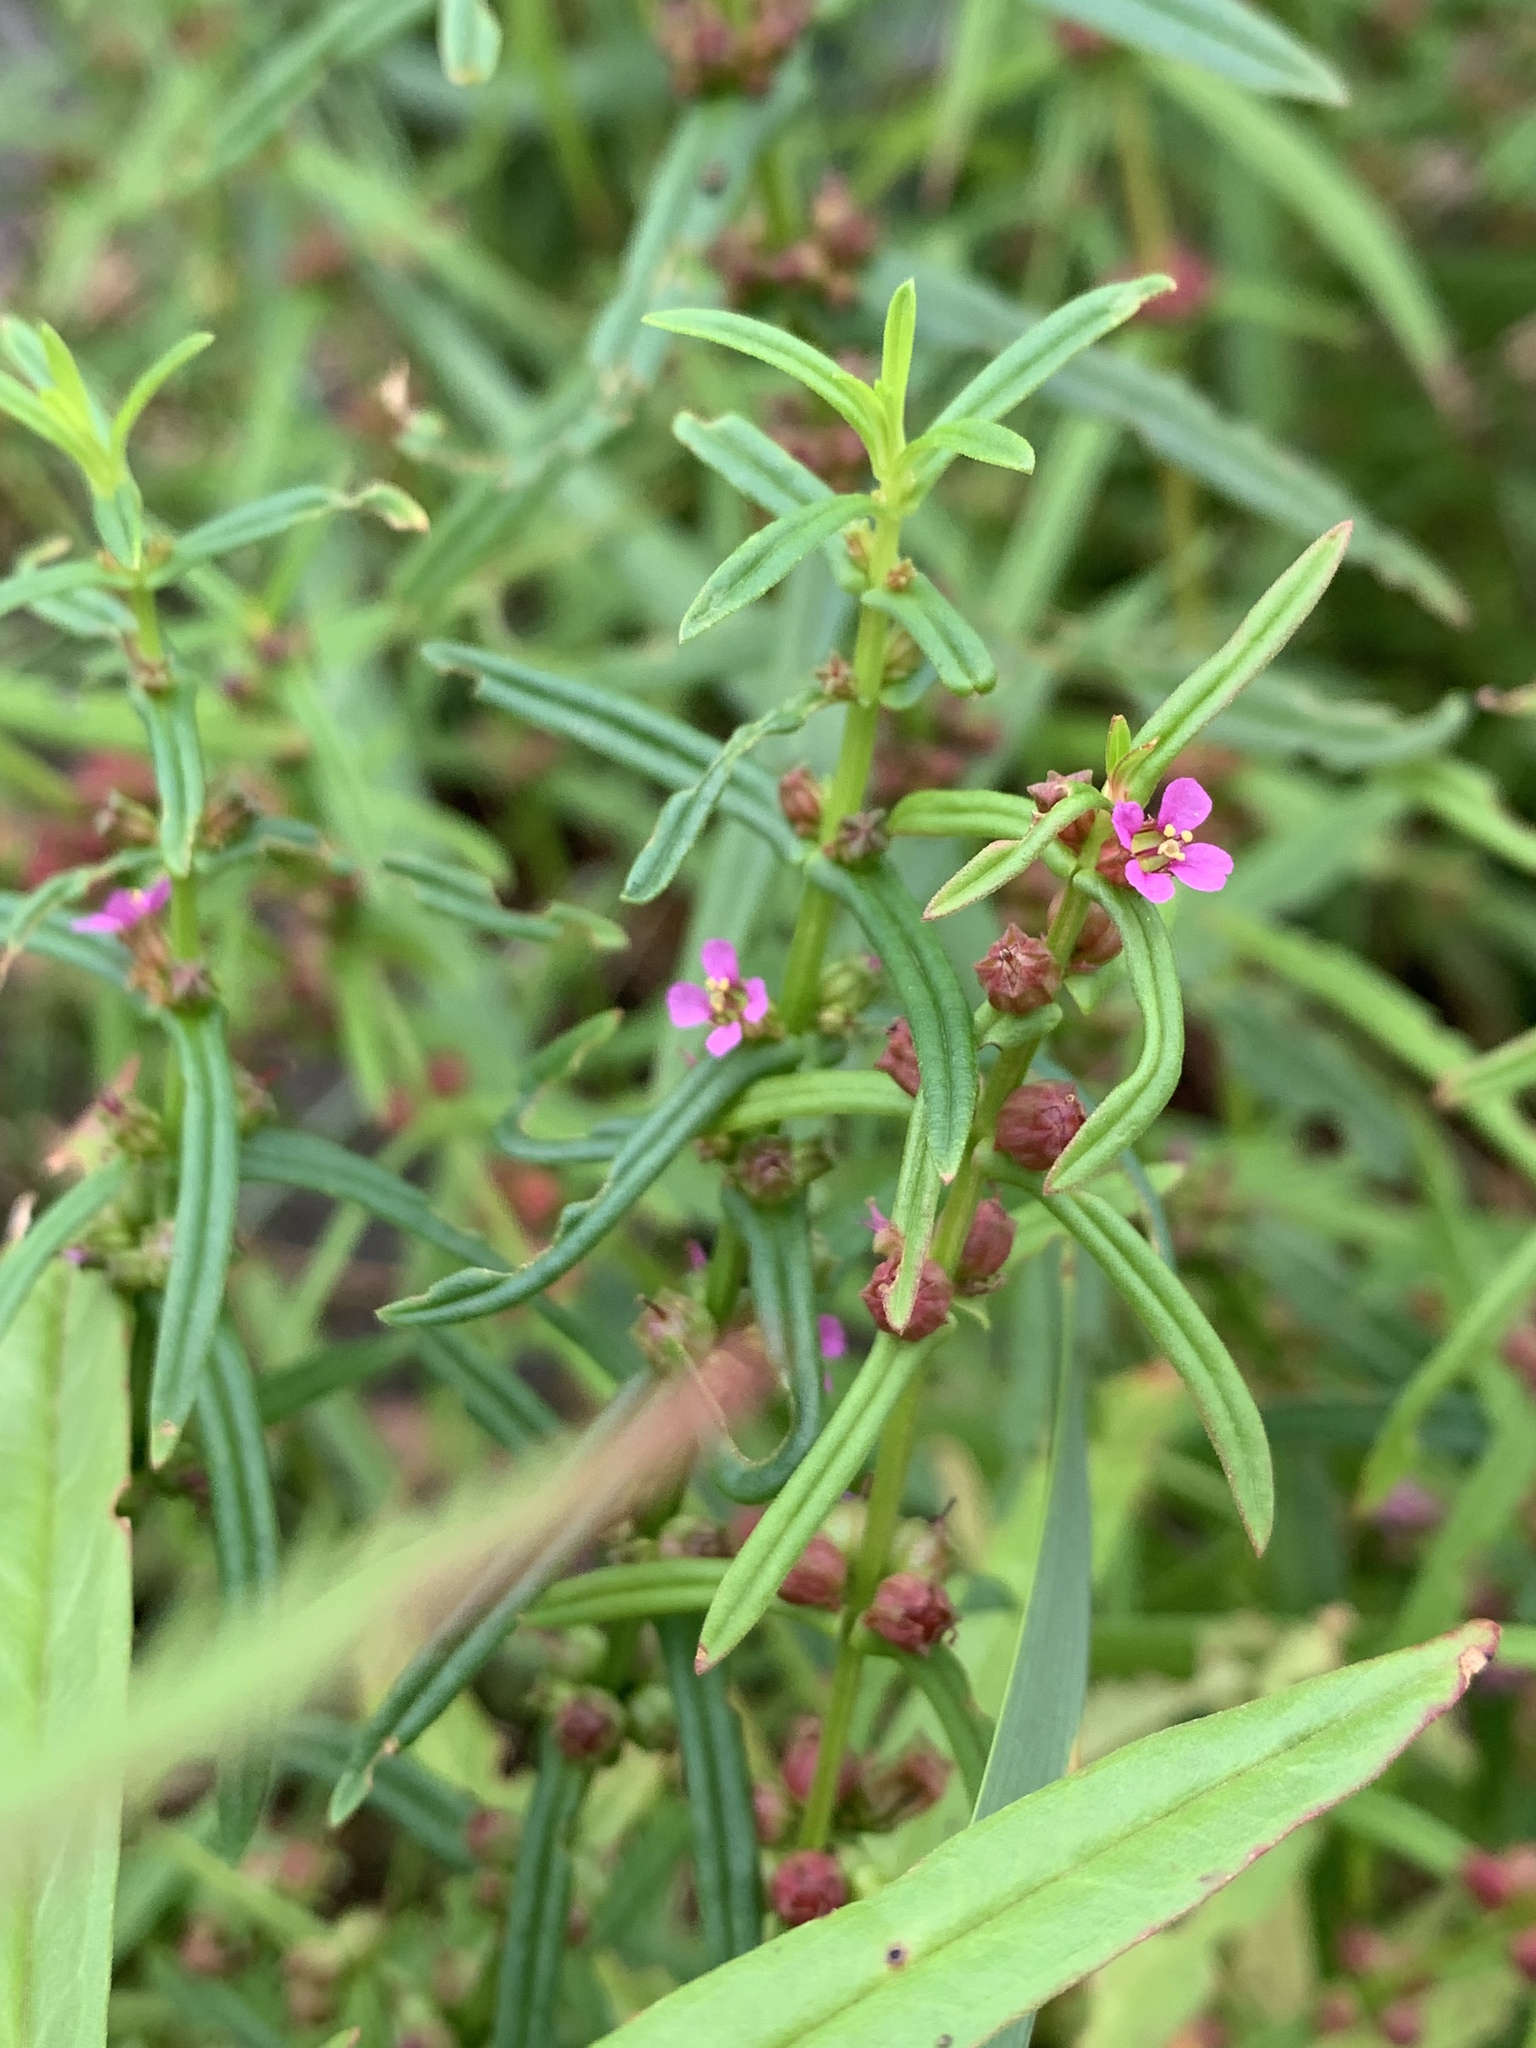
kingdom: Plantae
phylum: Tracheophyta
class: Magnoliopsida
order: Myrtales
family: Lythraceae
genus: Ammannia
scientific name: Ammannia coccinea
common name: Valley redstem
